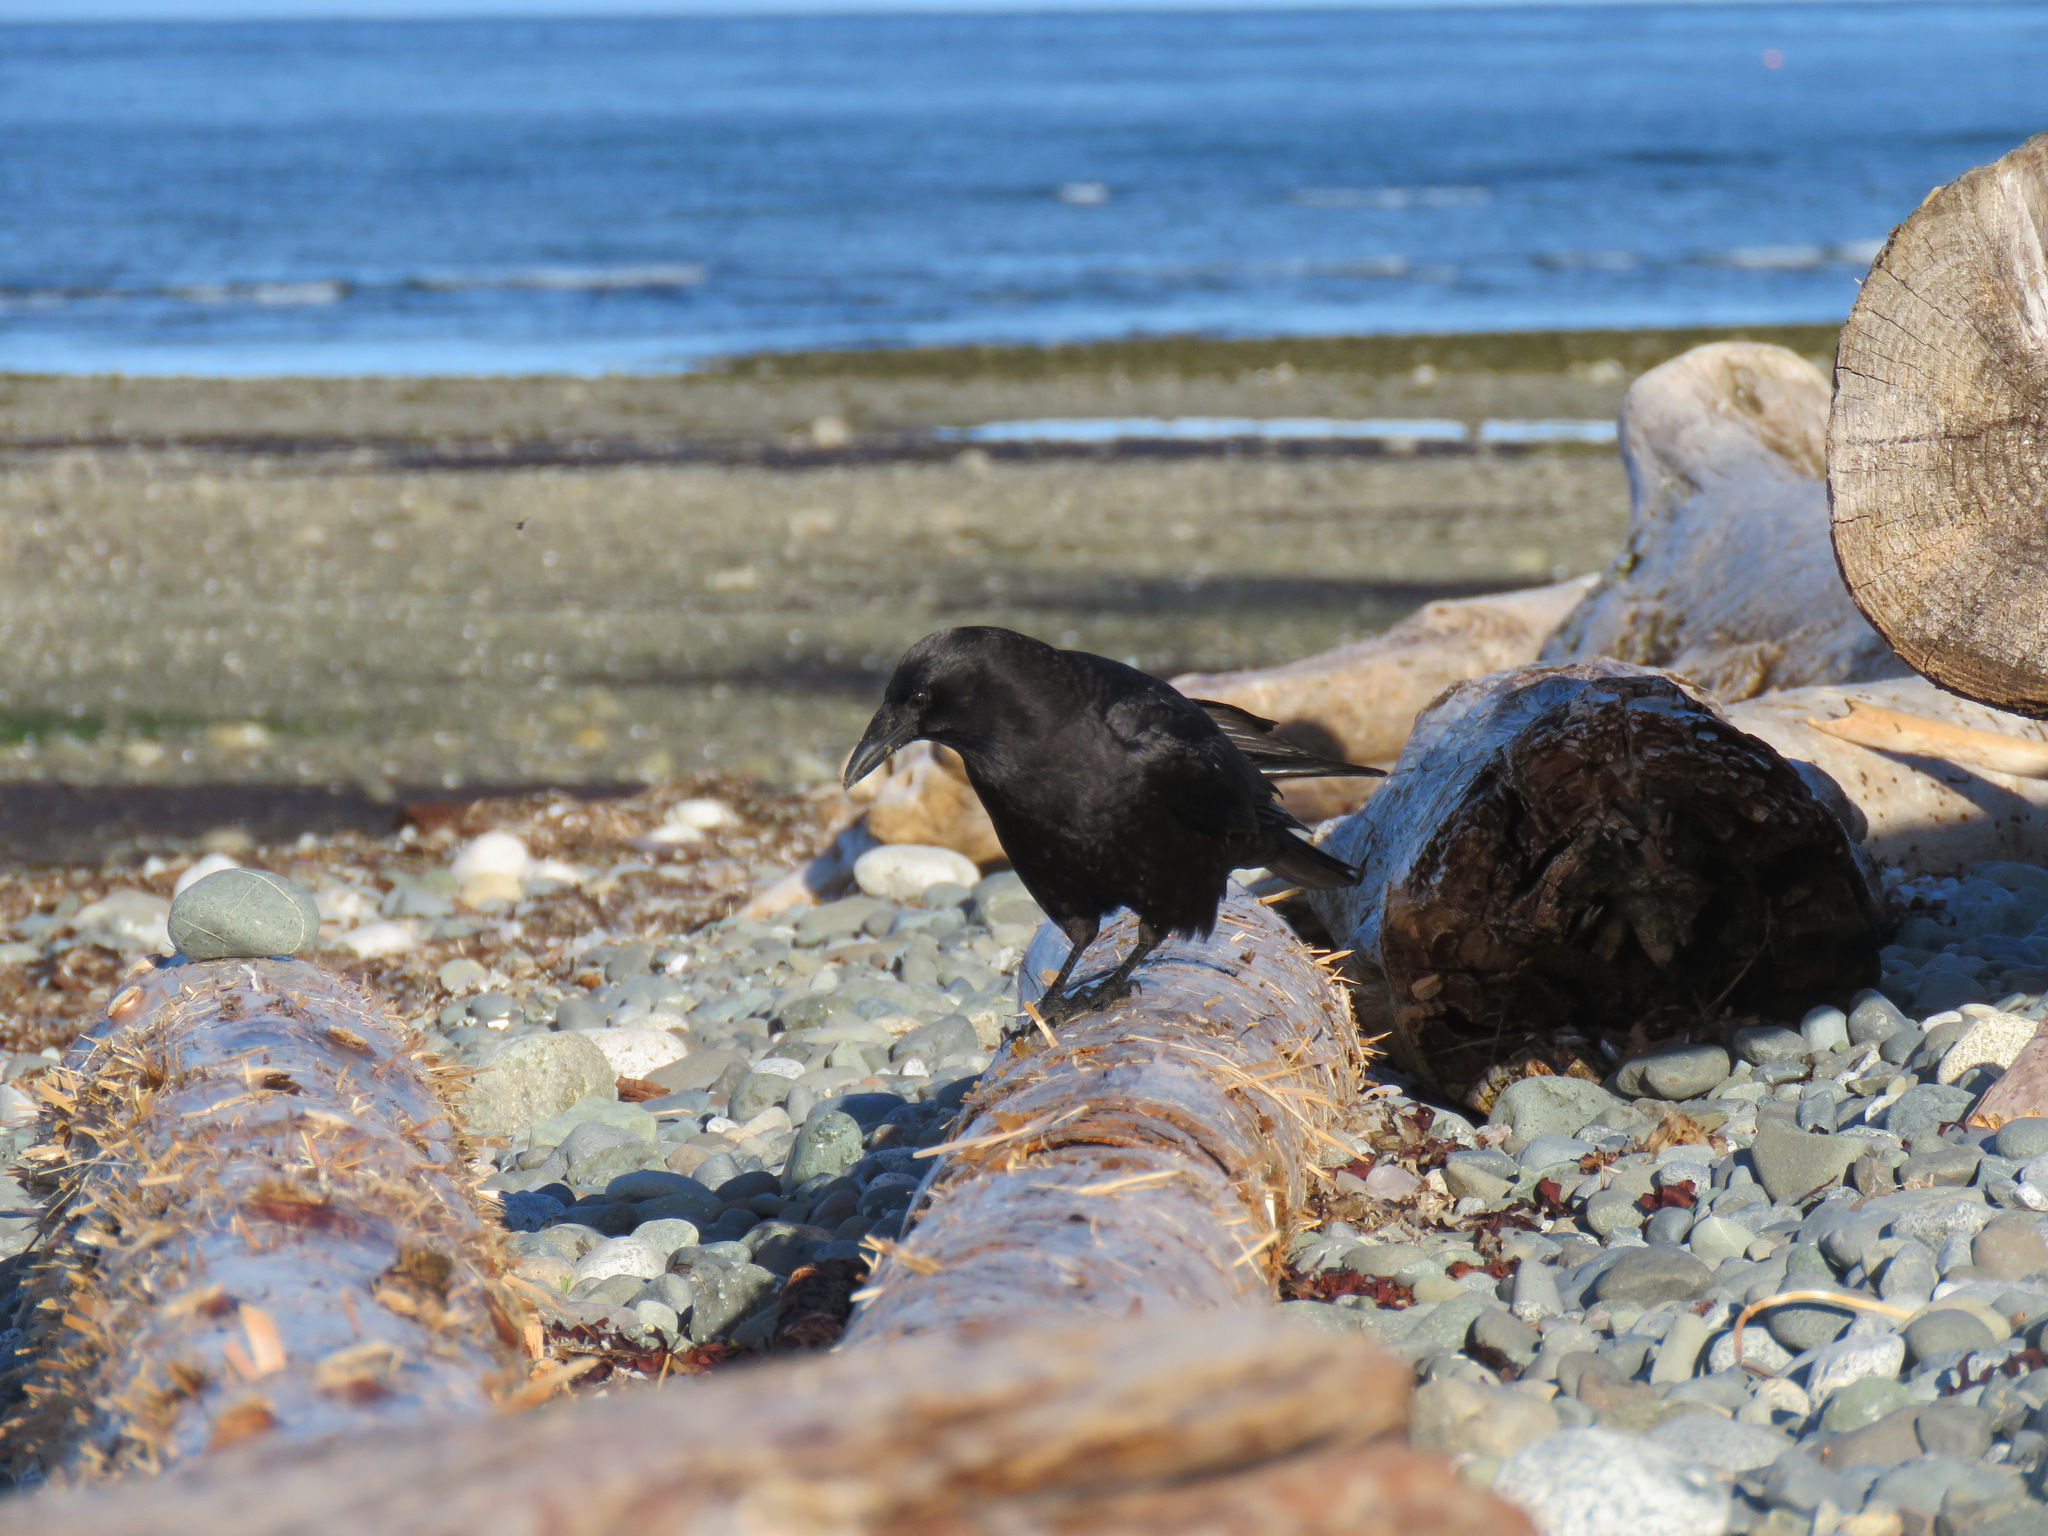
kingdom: Animalia
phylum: Chordata
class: Aves
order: Passeriformes
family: Corvidae
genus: Corvus
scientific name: Corvus brachyrhynchos
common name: American crow
